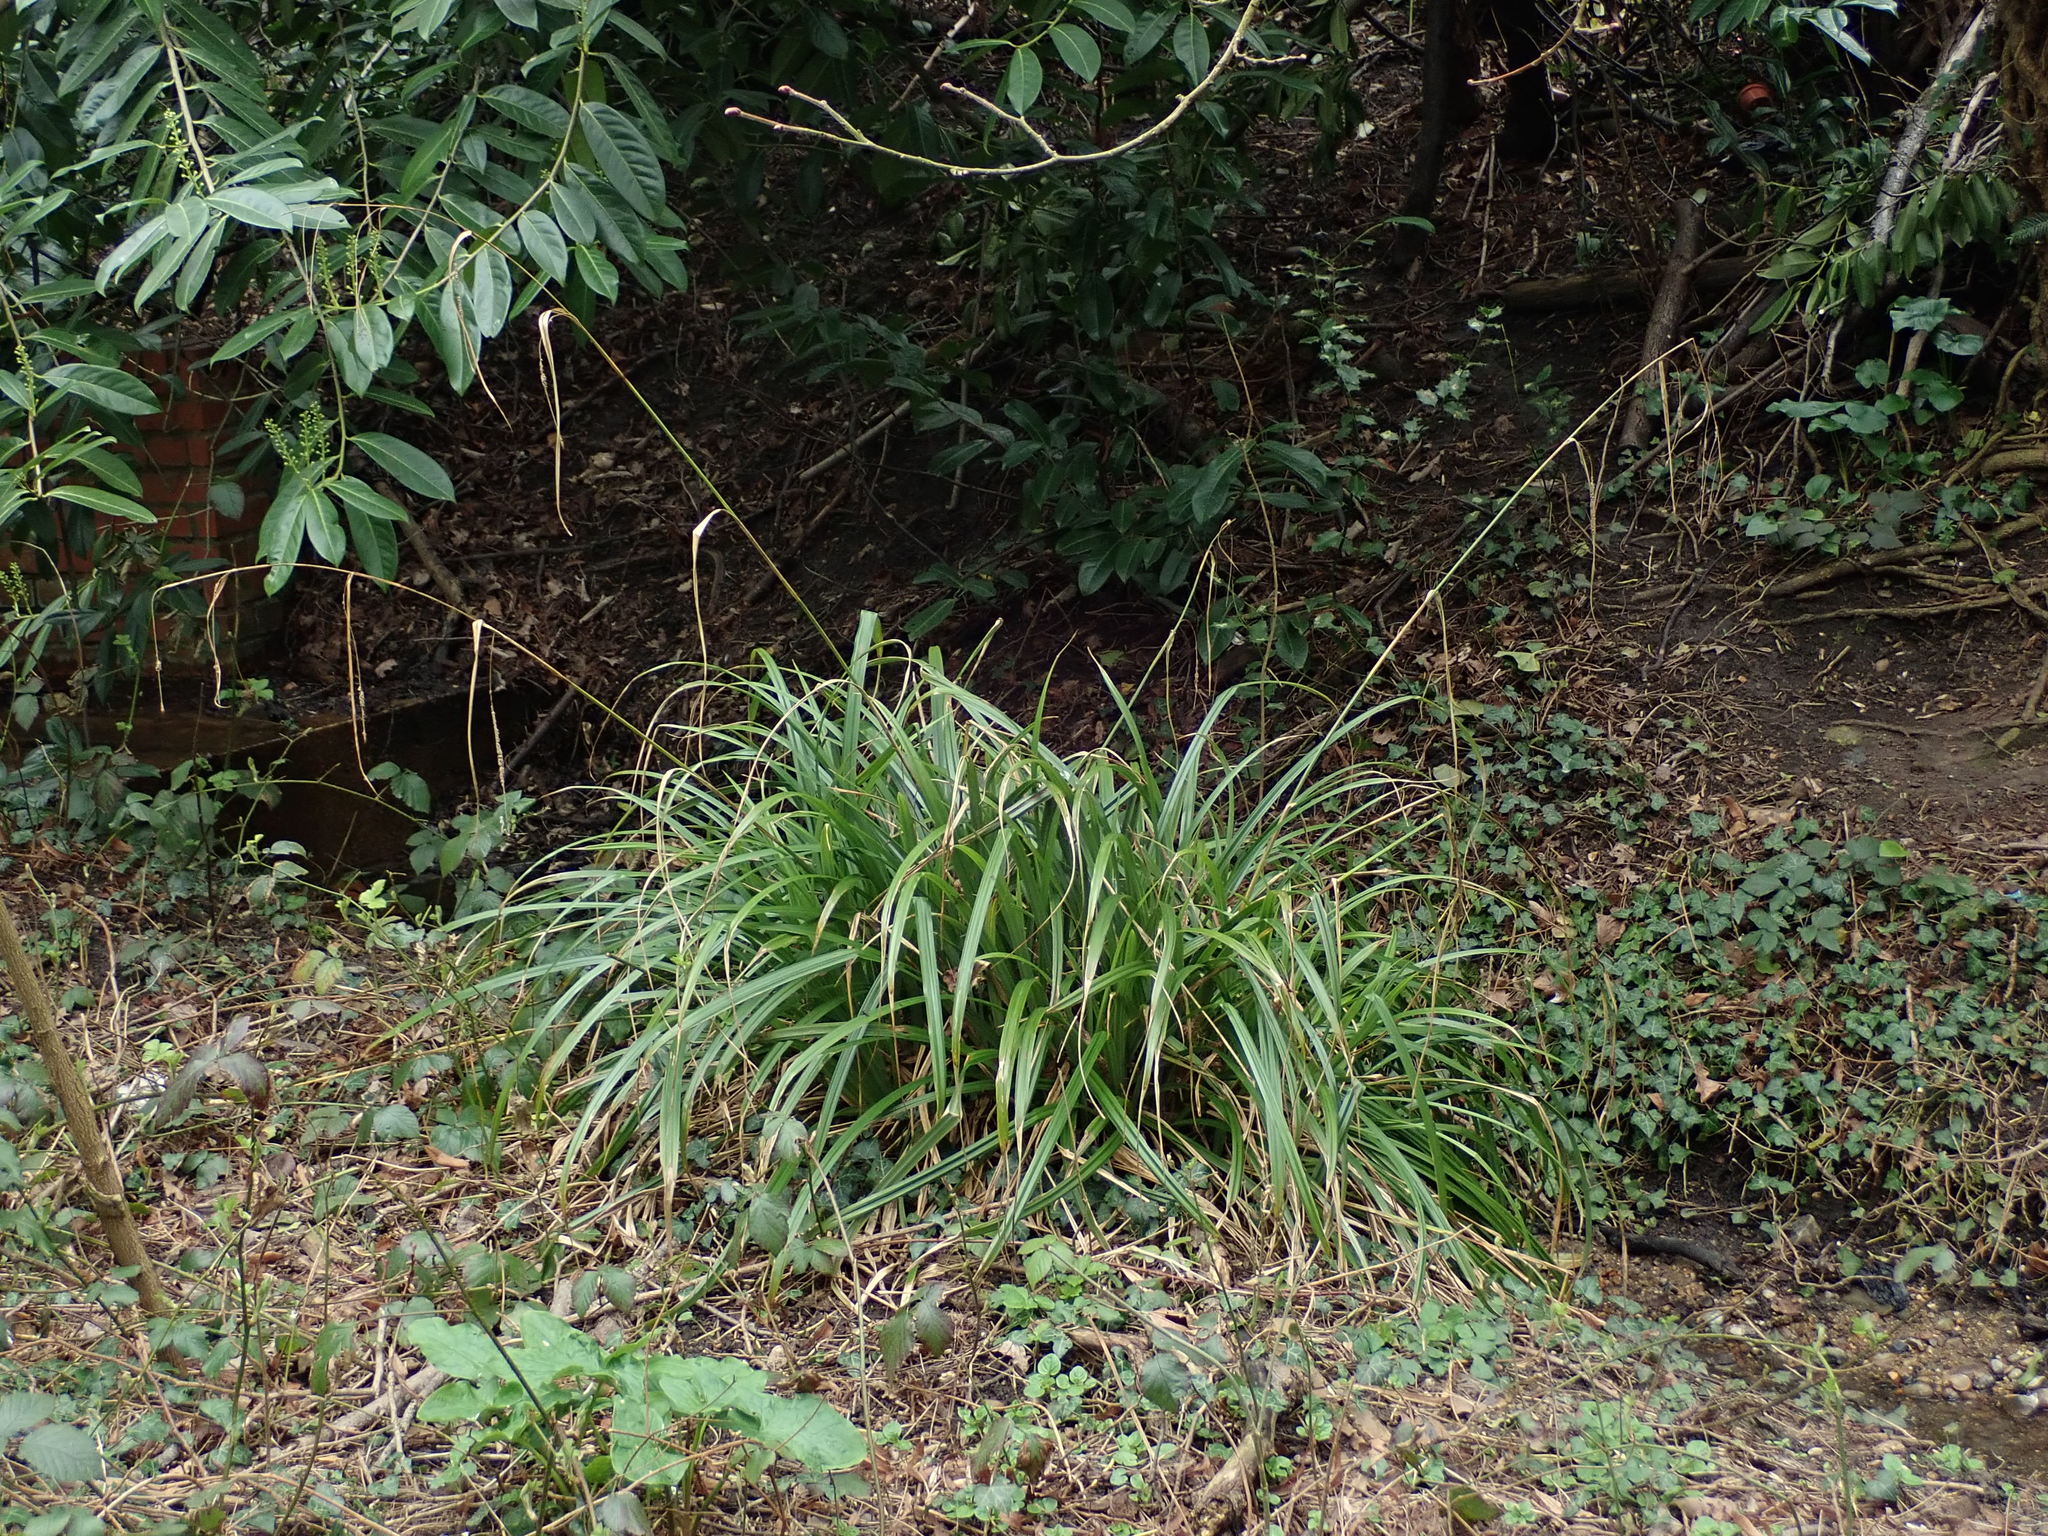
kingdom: Plantae
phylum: Tracheophyta
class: Liliopsida
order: Poales
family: Cyperaceae
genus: Carex
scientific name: Carex pendula
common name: Pendulous sedge
